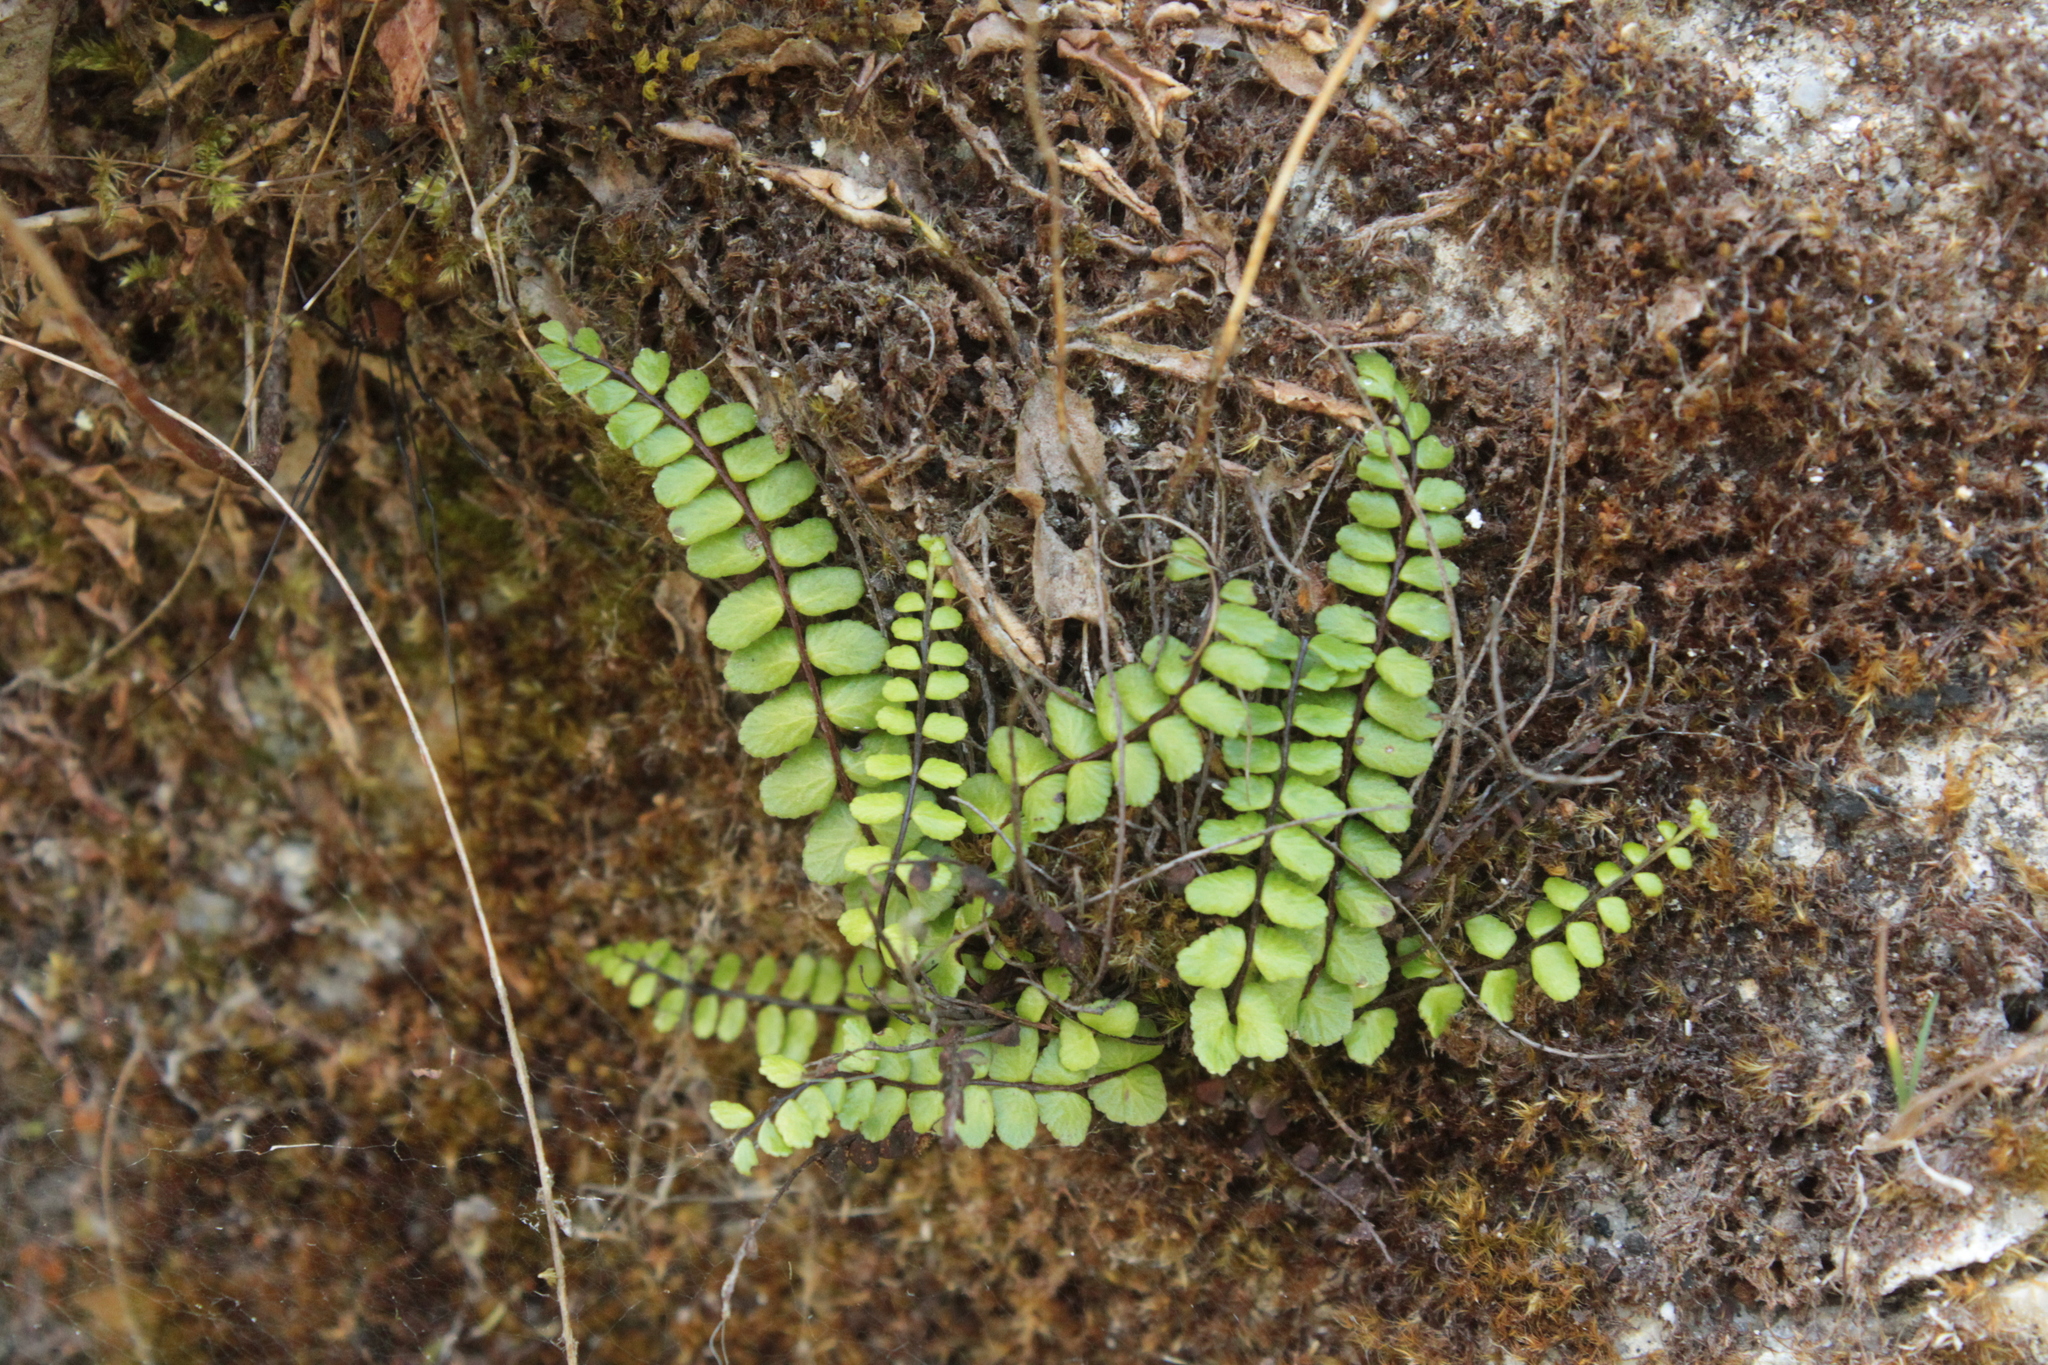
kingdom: Plantae
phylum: Tracheophyta
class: Polypodiopsida
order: Polypodiales
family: Aspleniaceae
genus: Asplenium
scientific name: Asplenium trichomanes
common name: Maidenhair spleenwort
